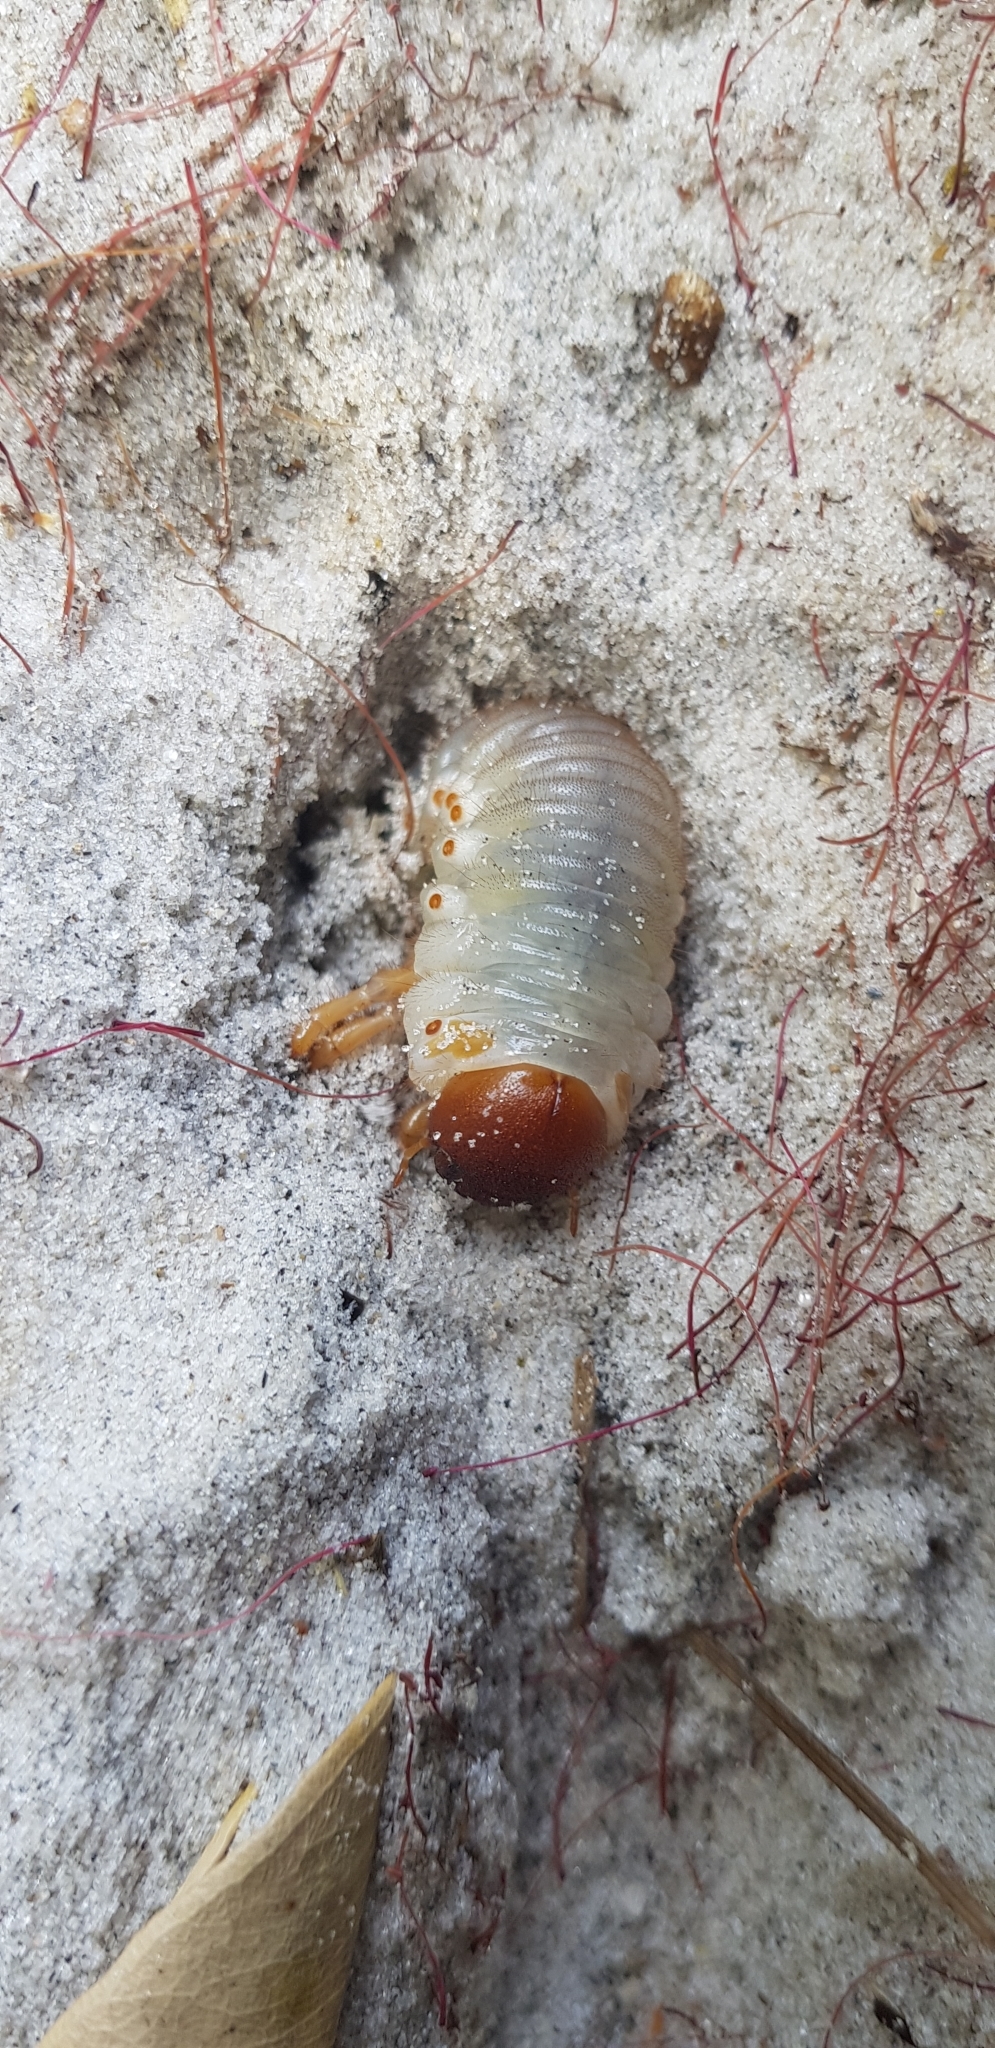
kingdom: Animalia
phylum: Arthropoda
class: Insecta
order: Coleoptera
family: Scarabaeidae
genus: Pericoptus
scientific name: Pericoptus truncatus
